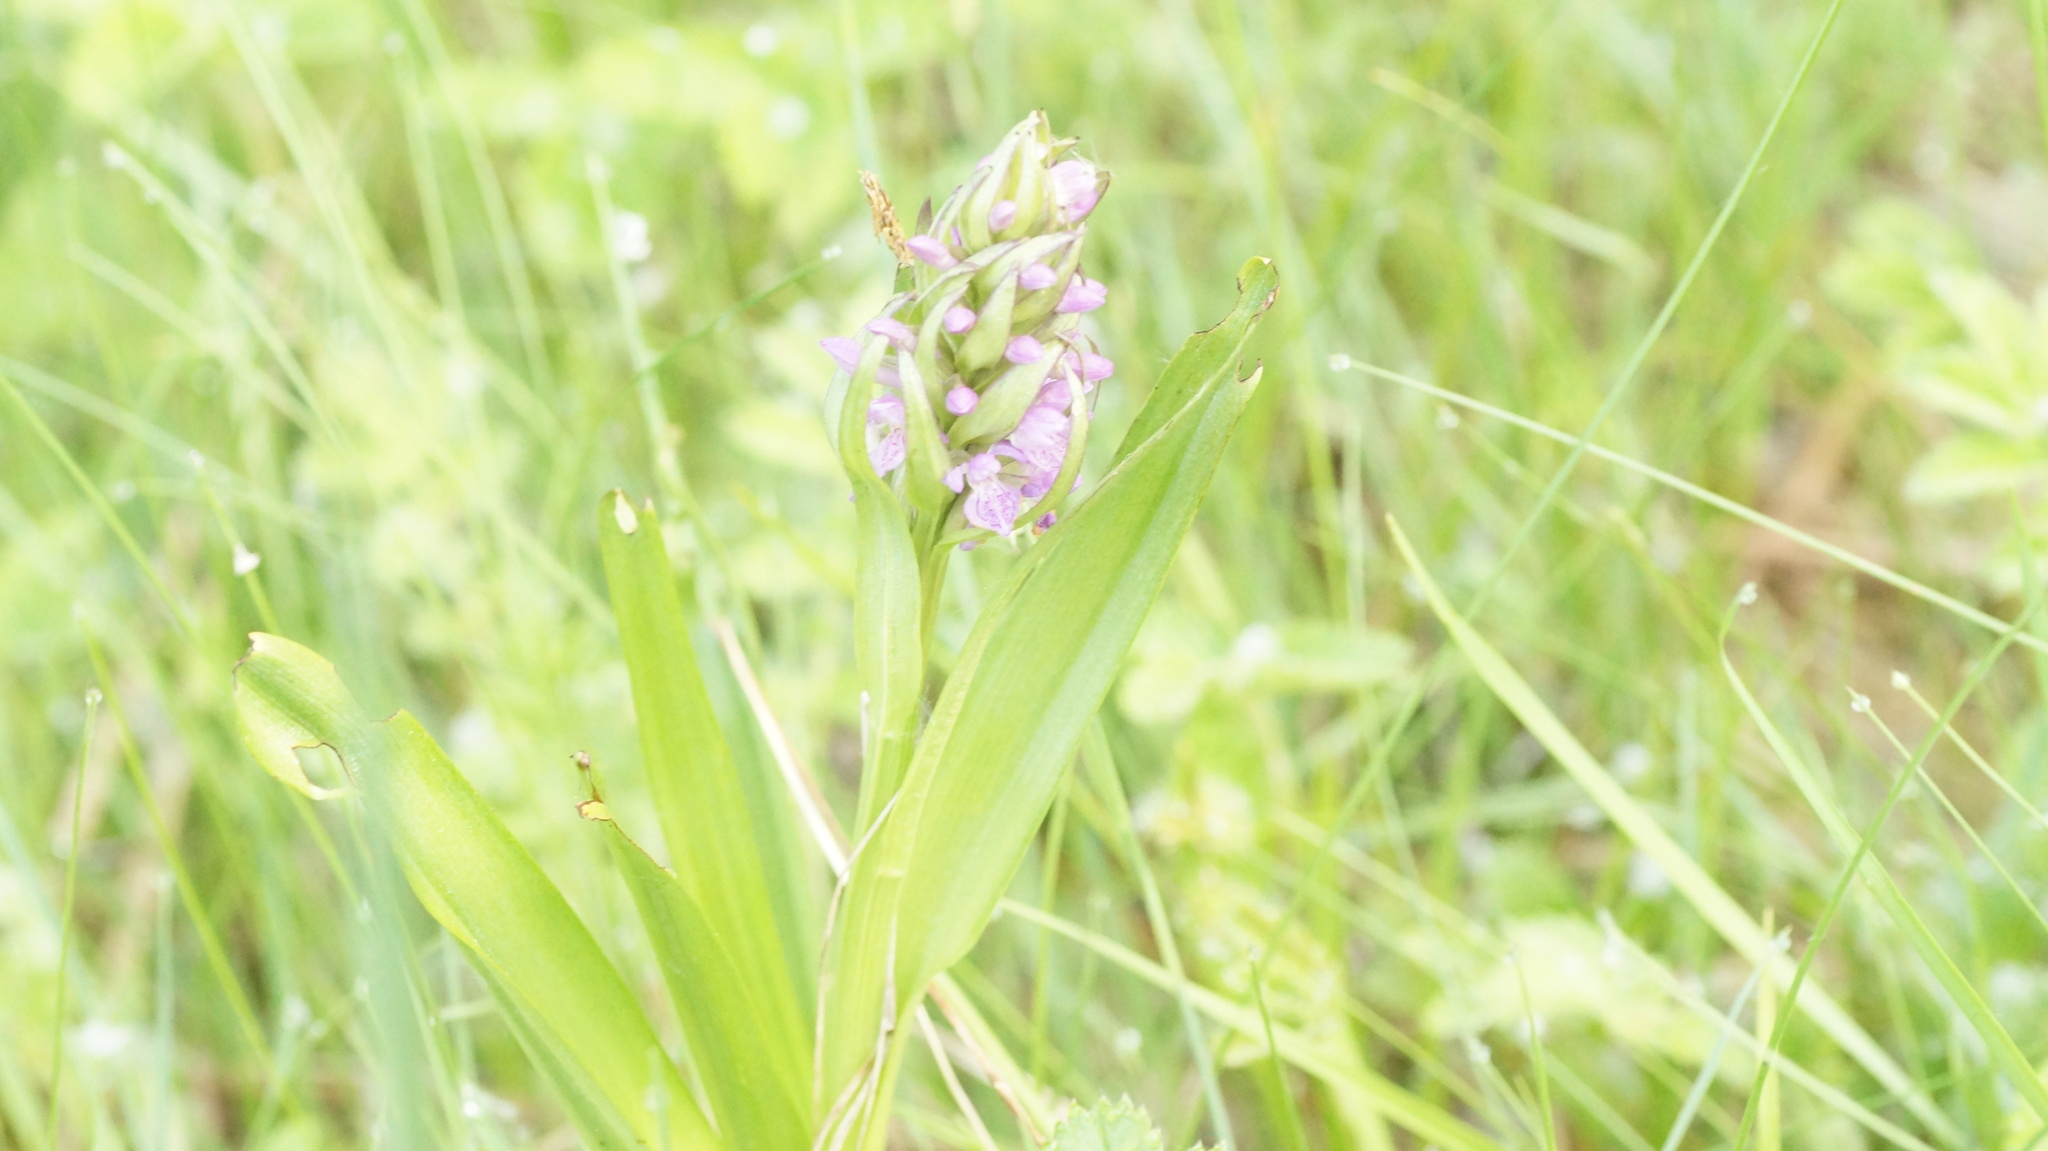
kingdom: Plantae
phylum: Tracheophyta
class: Liliopsida
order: Asparagales
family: Orchidaceae
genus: Dactylorhiza
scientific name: Dactylorhiza incarnata
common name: Early marsh-orchid
